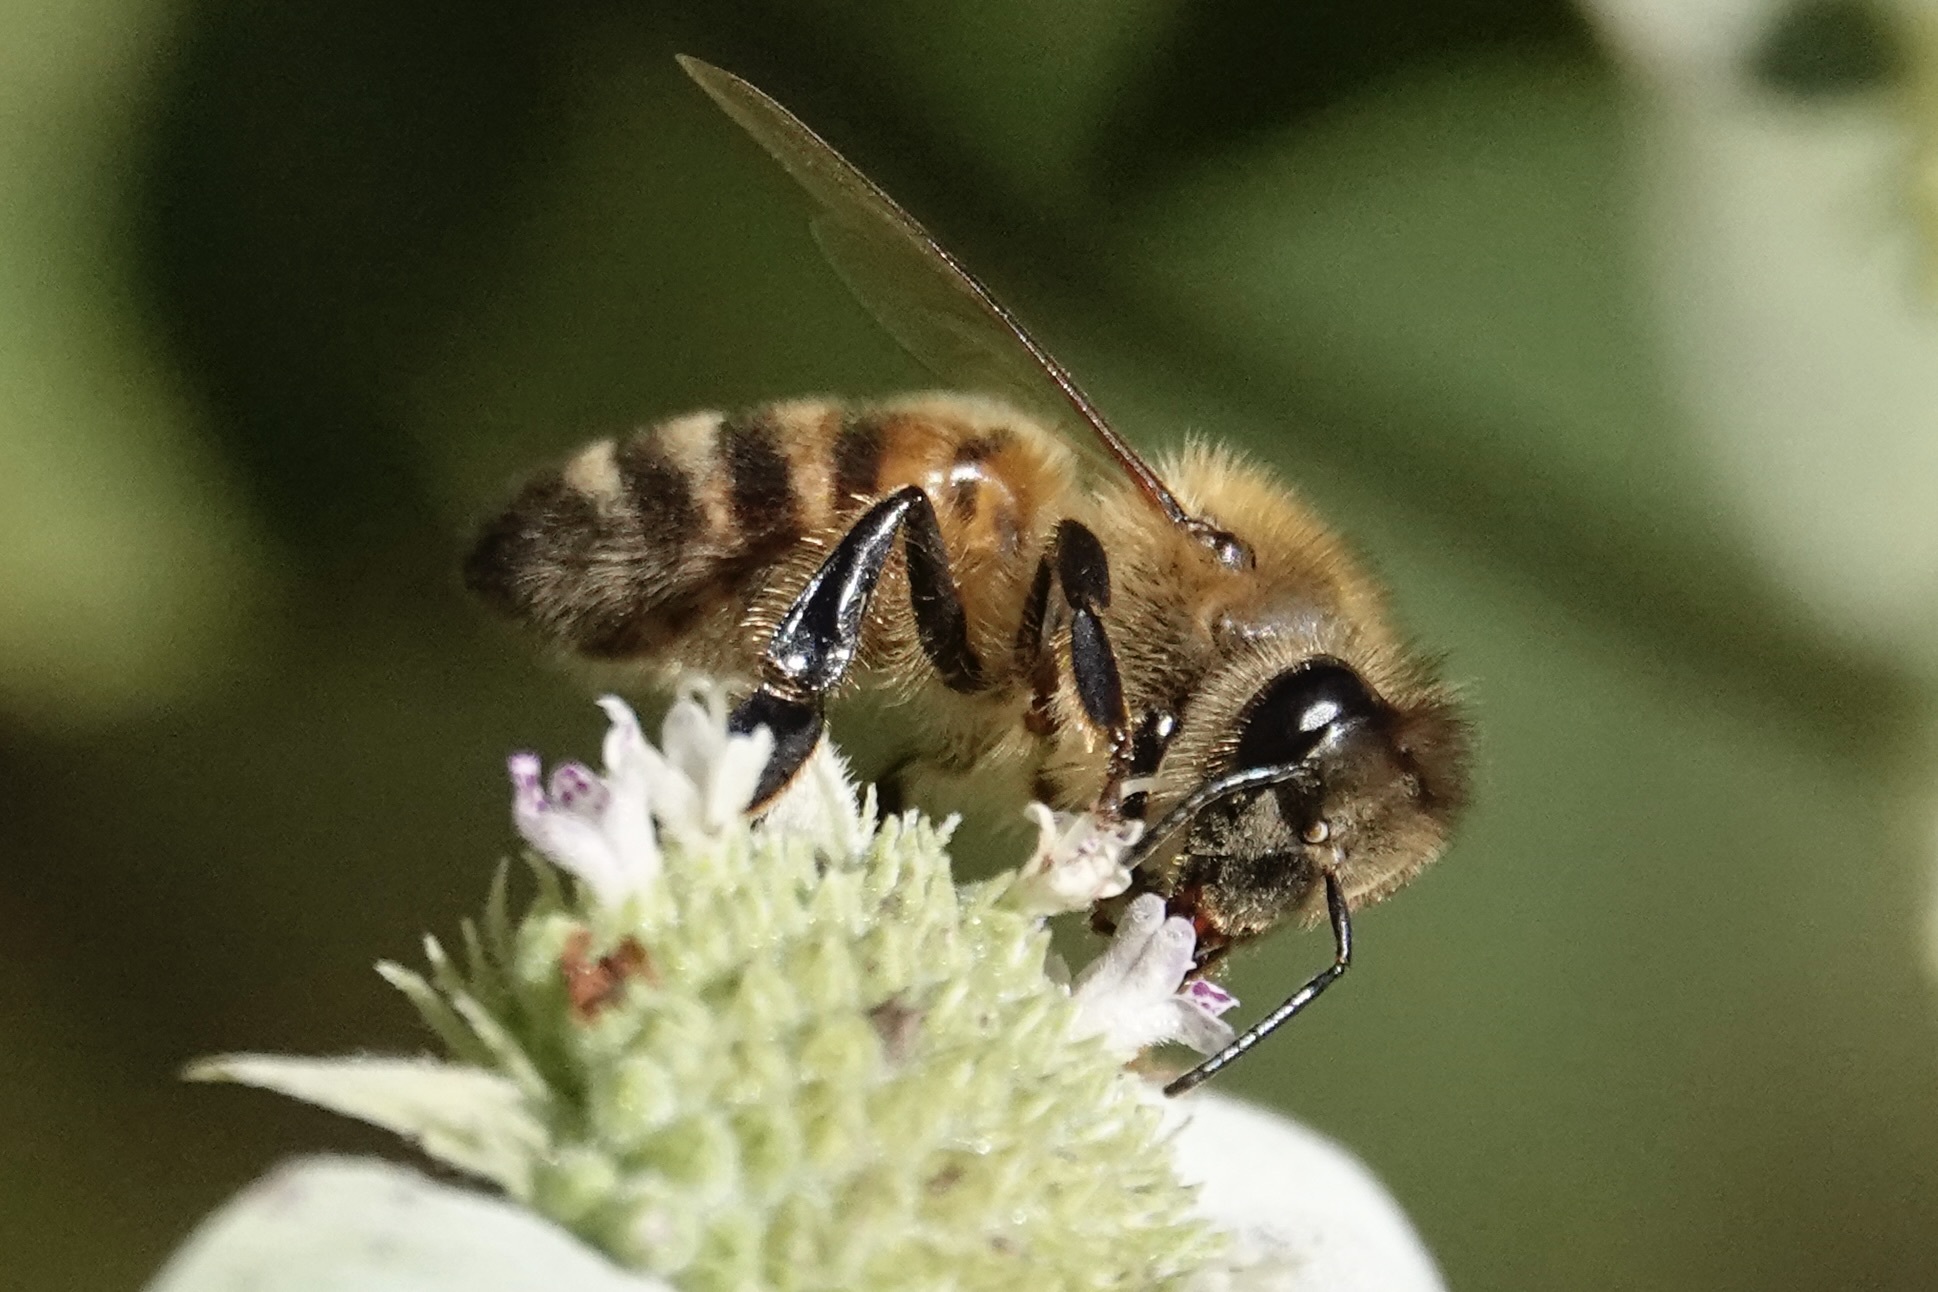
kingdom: Animalia
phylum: Arthropoda
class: Insecta
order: Hymenoptera
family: Apidae
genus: Apis
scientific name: Apis mellifera
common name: Honey bee
